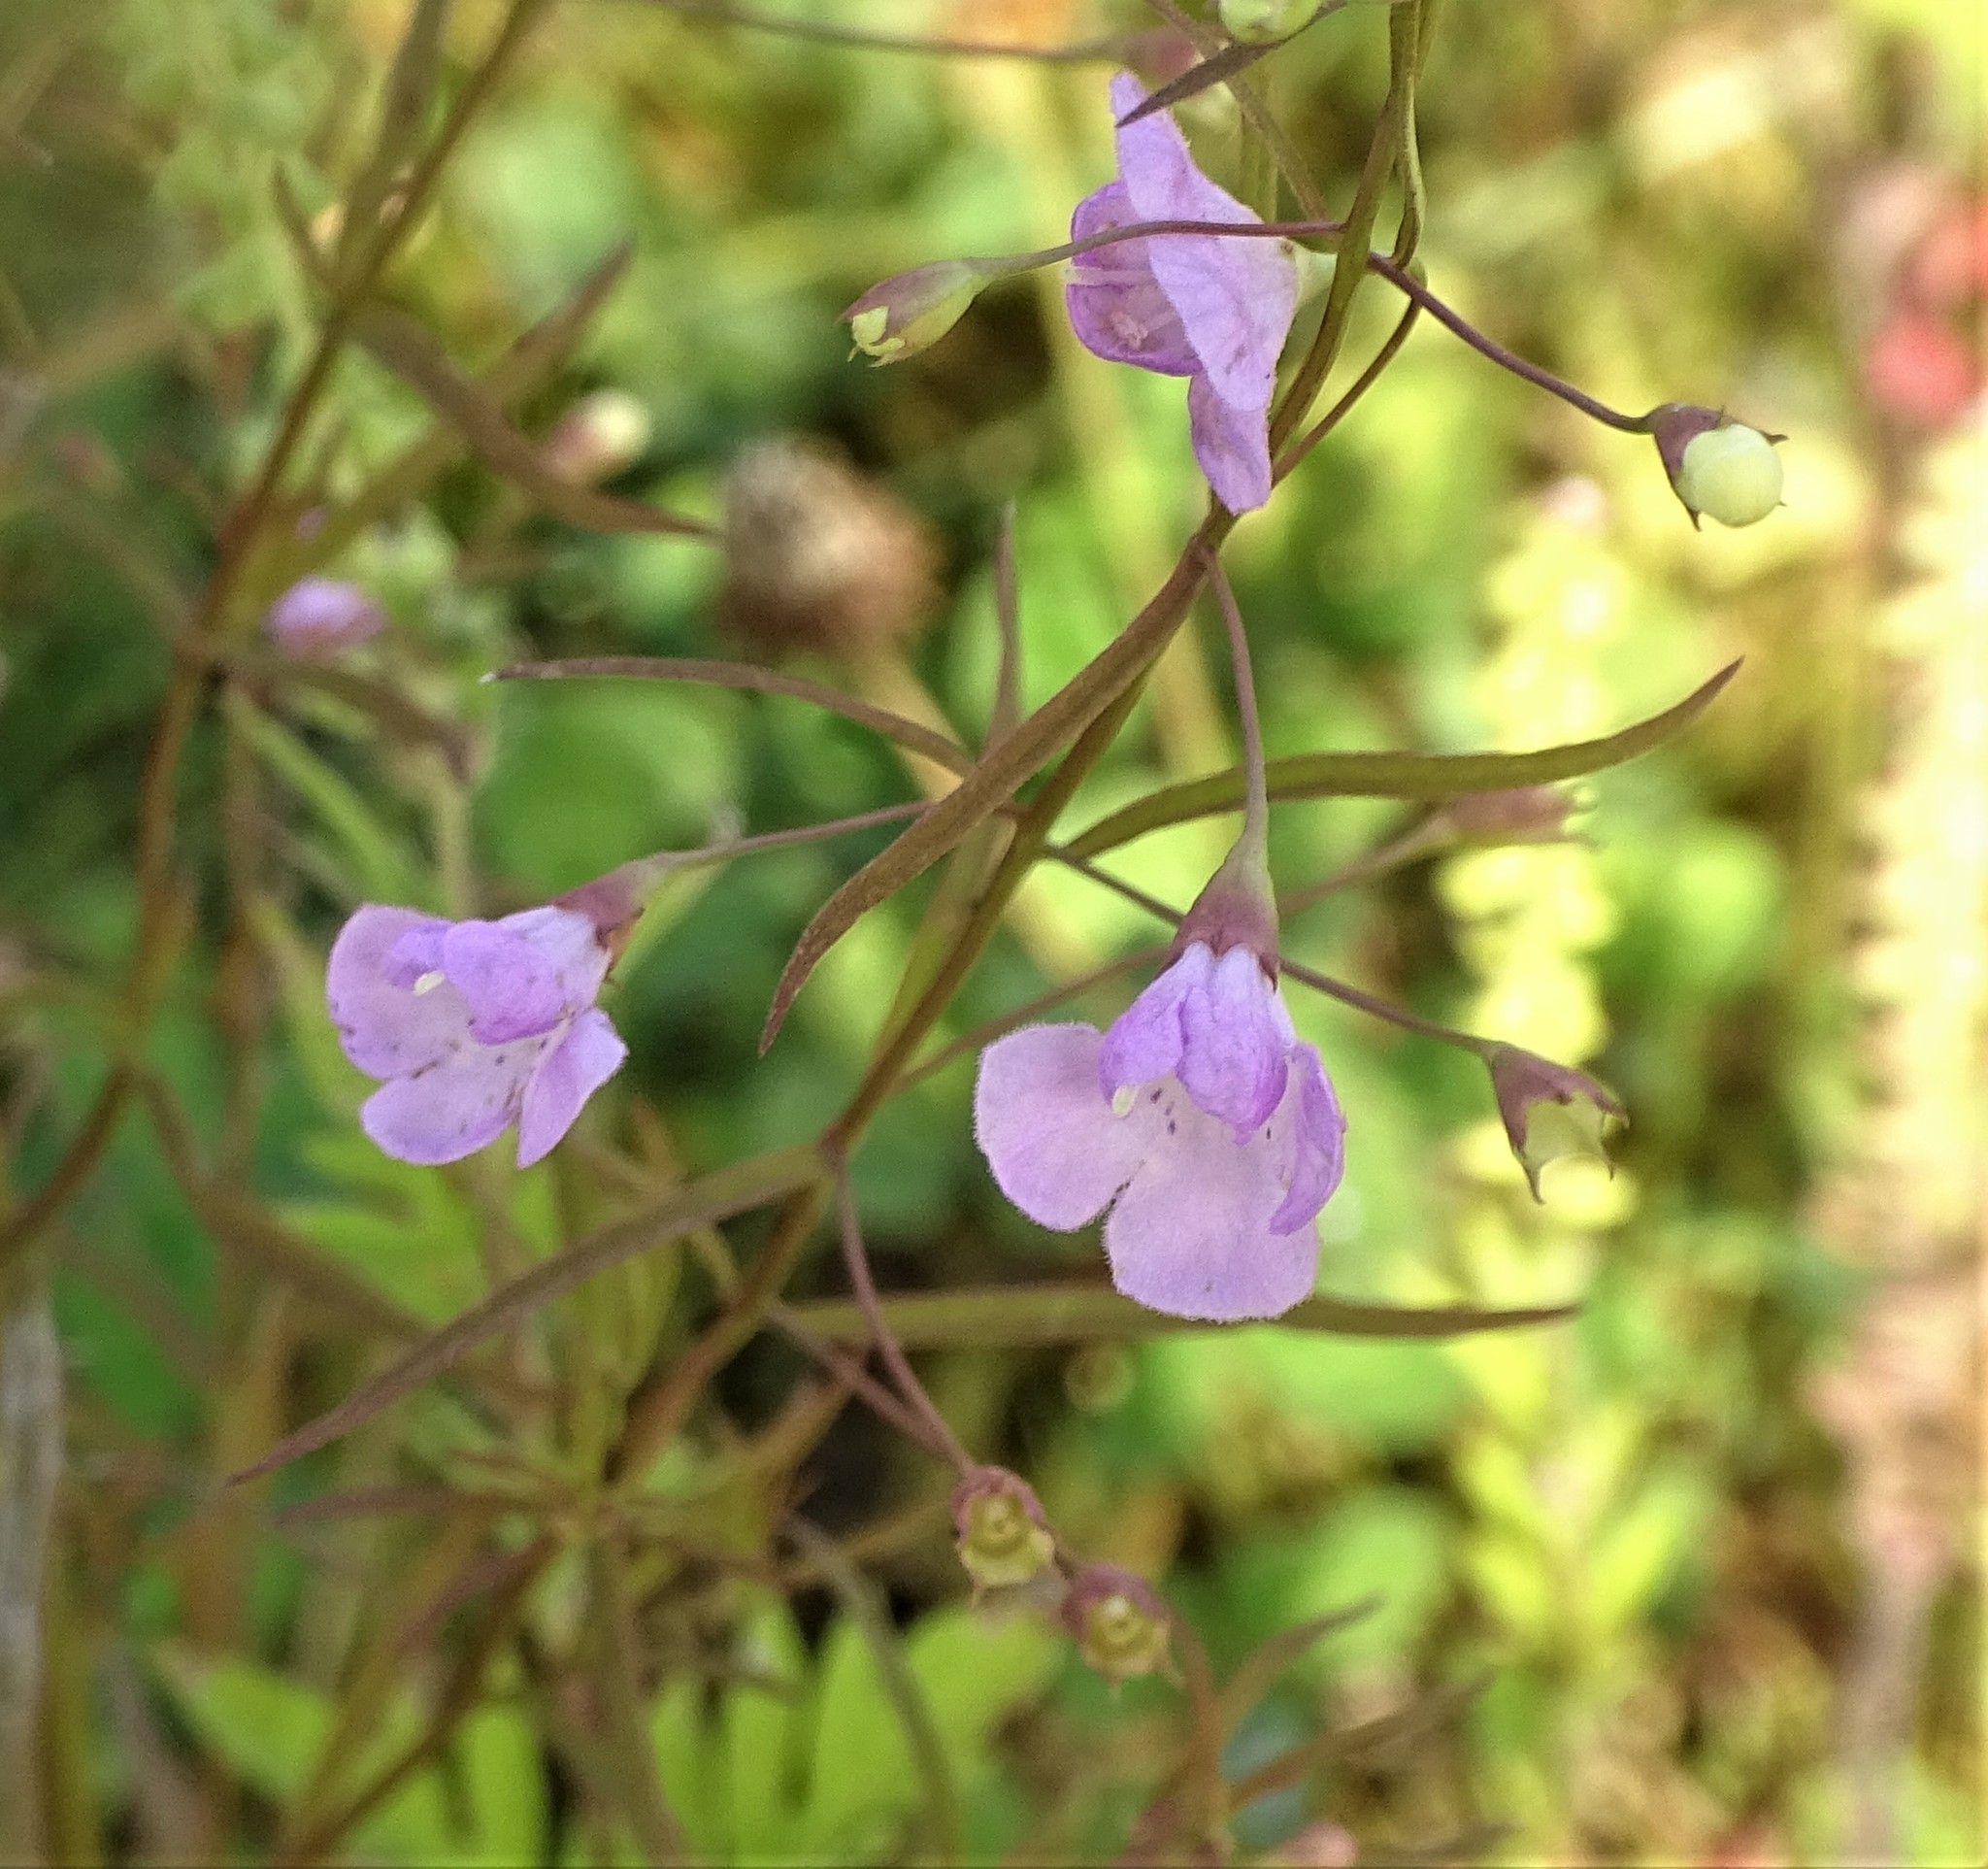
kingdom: Plantae
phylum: Tracheophyta
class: Magnoliopsida
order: Lamiales
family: Orobanchaceae
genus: Agalinis
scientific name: Agalinis tenuifolia
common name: Slender agalinis
